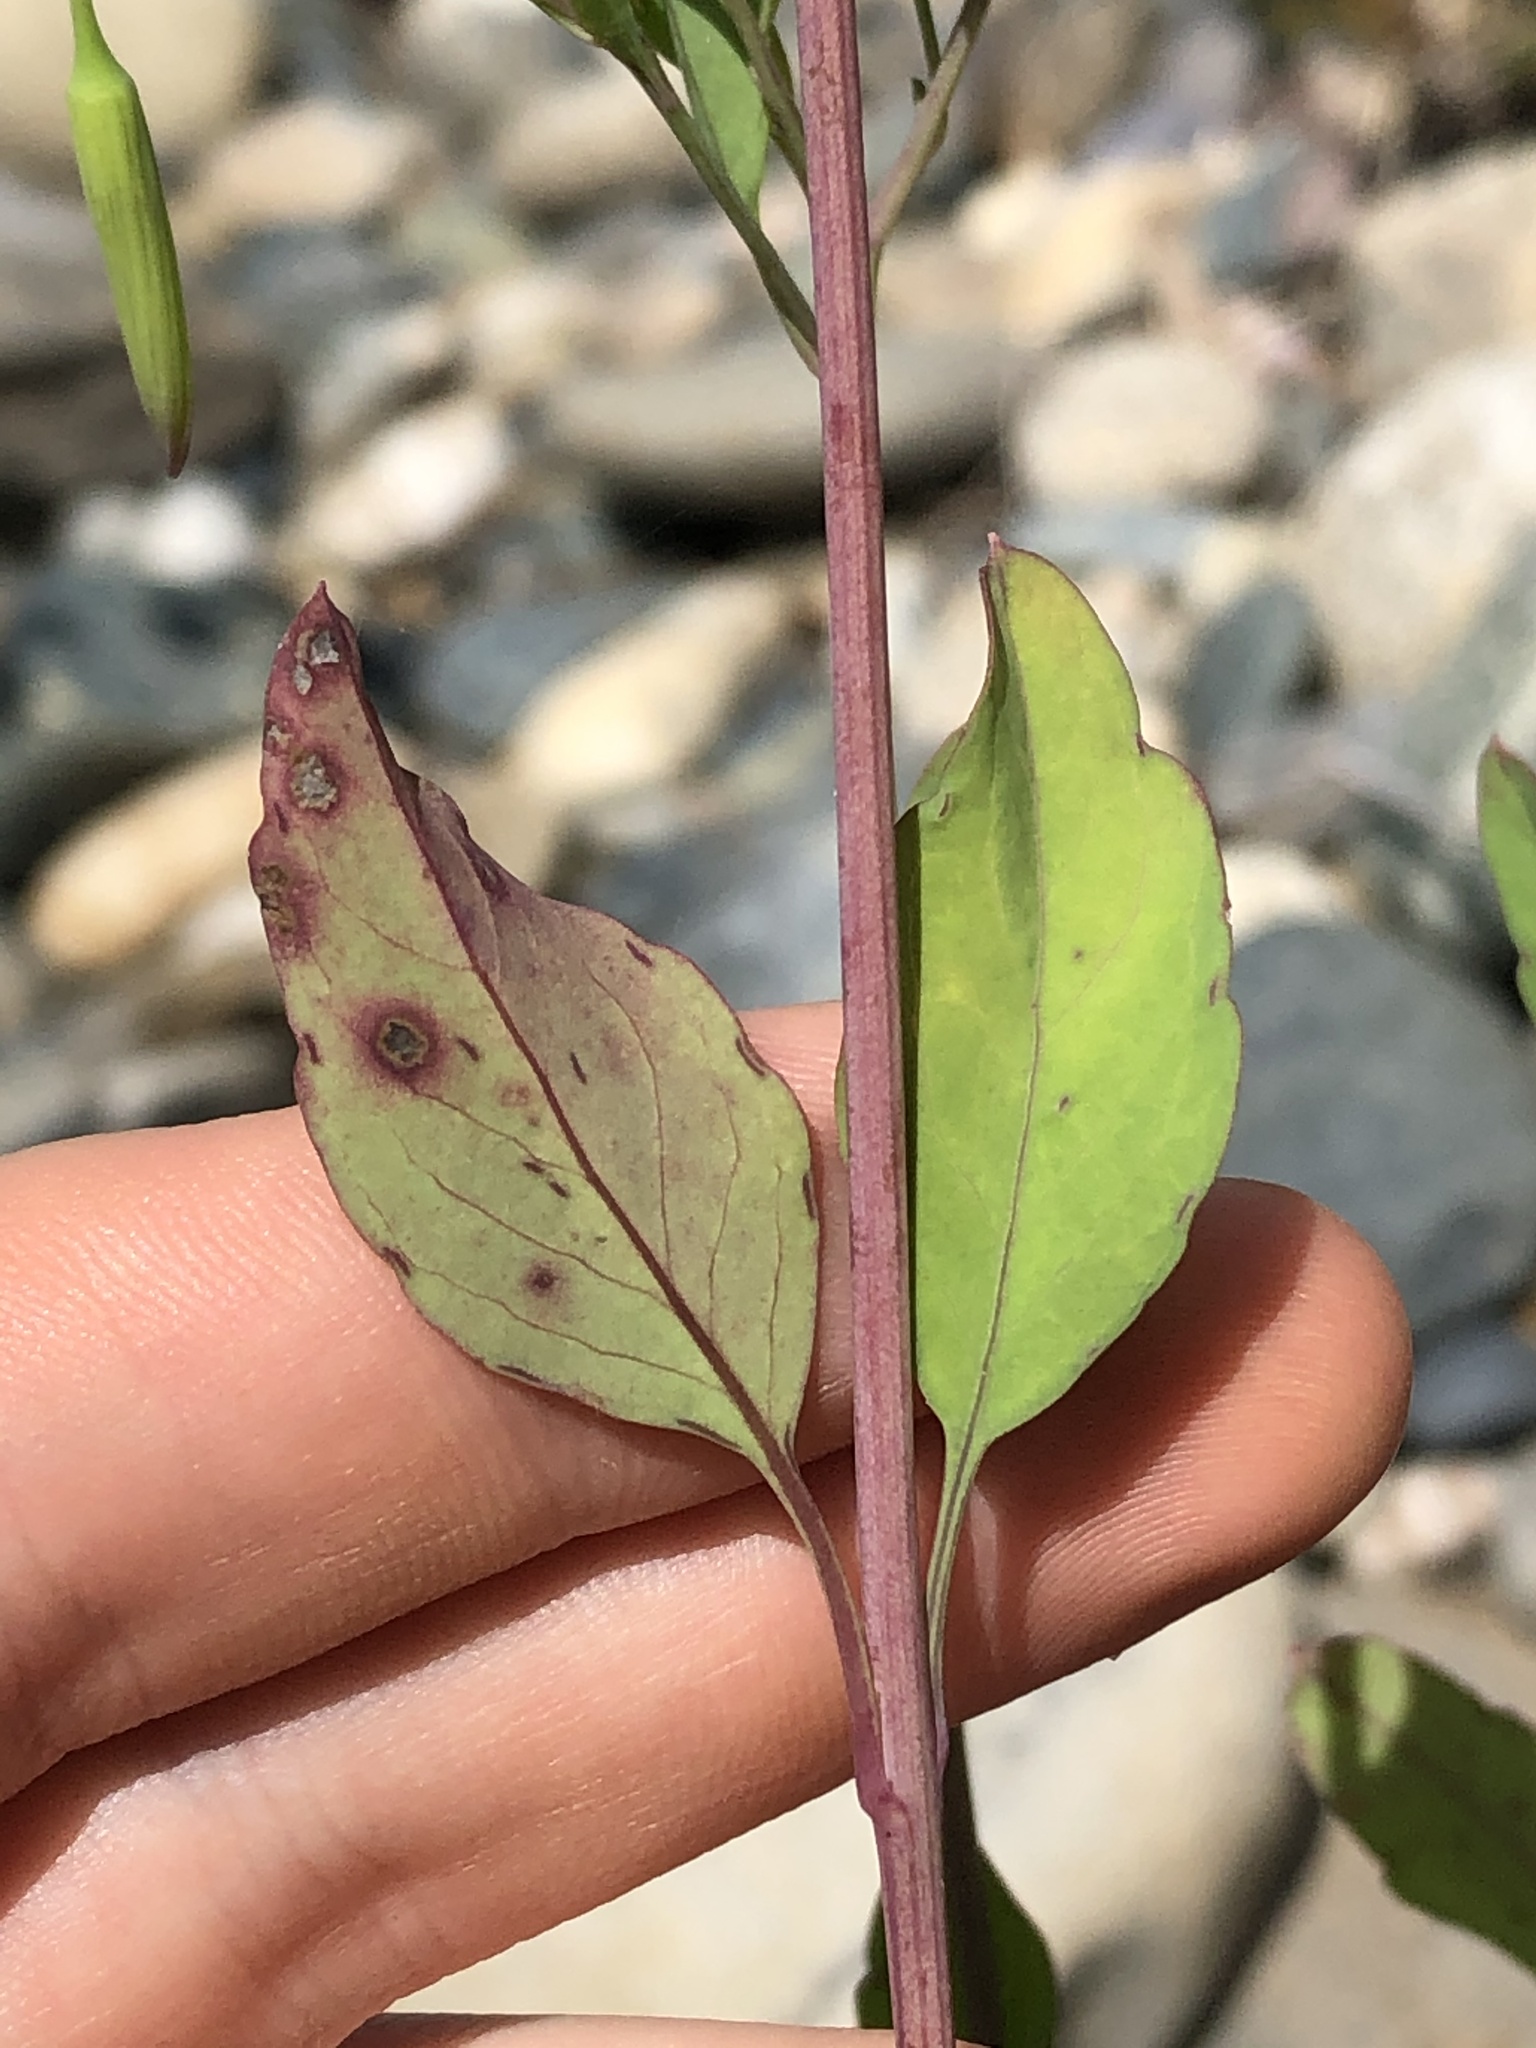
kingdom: Plantae
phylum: Tracheophyta
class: Magnoliopsida
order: Asterales
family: Asteraceae
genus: Porophyllum
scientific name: Porophyllum ruderale
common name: Yerba porosa
